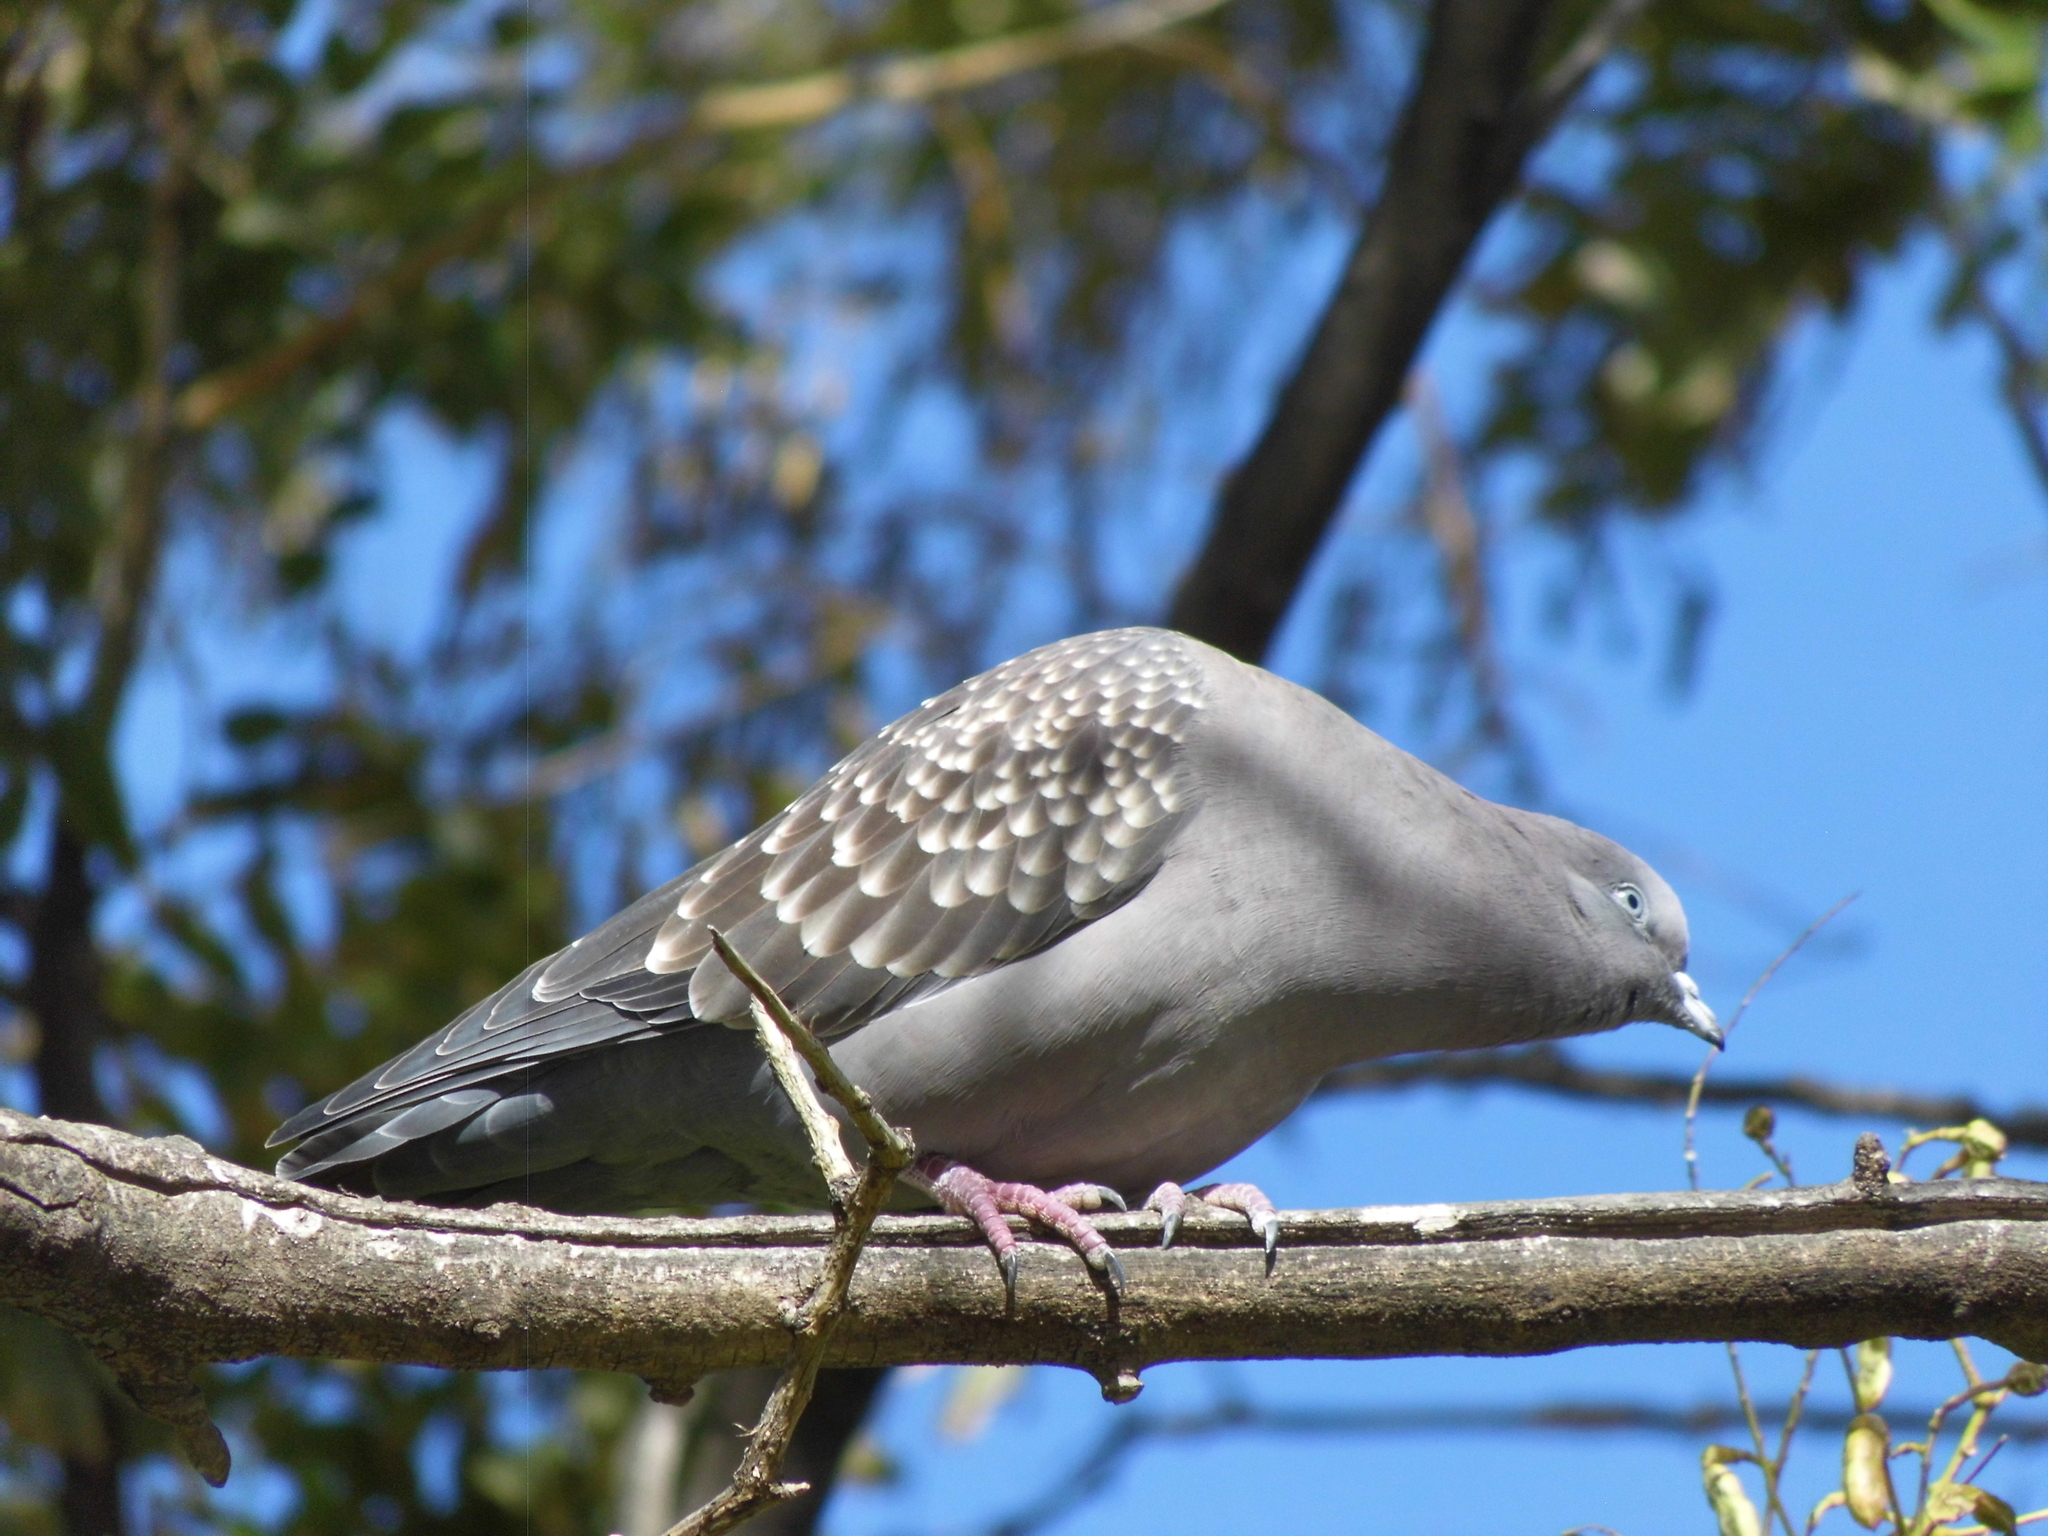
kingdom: Animalia
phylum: Chordata
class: Aves
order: Columbiformes
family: Columbidae
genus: Patagioenas
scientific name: Patagioenas maculosa
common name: Spot-winged pigeon
